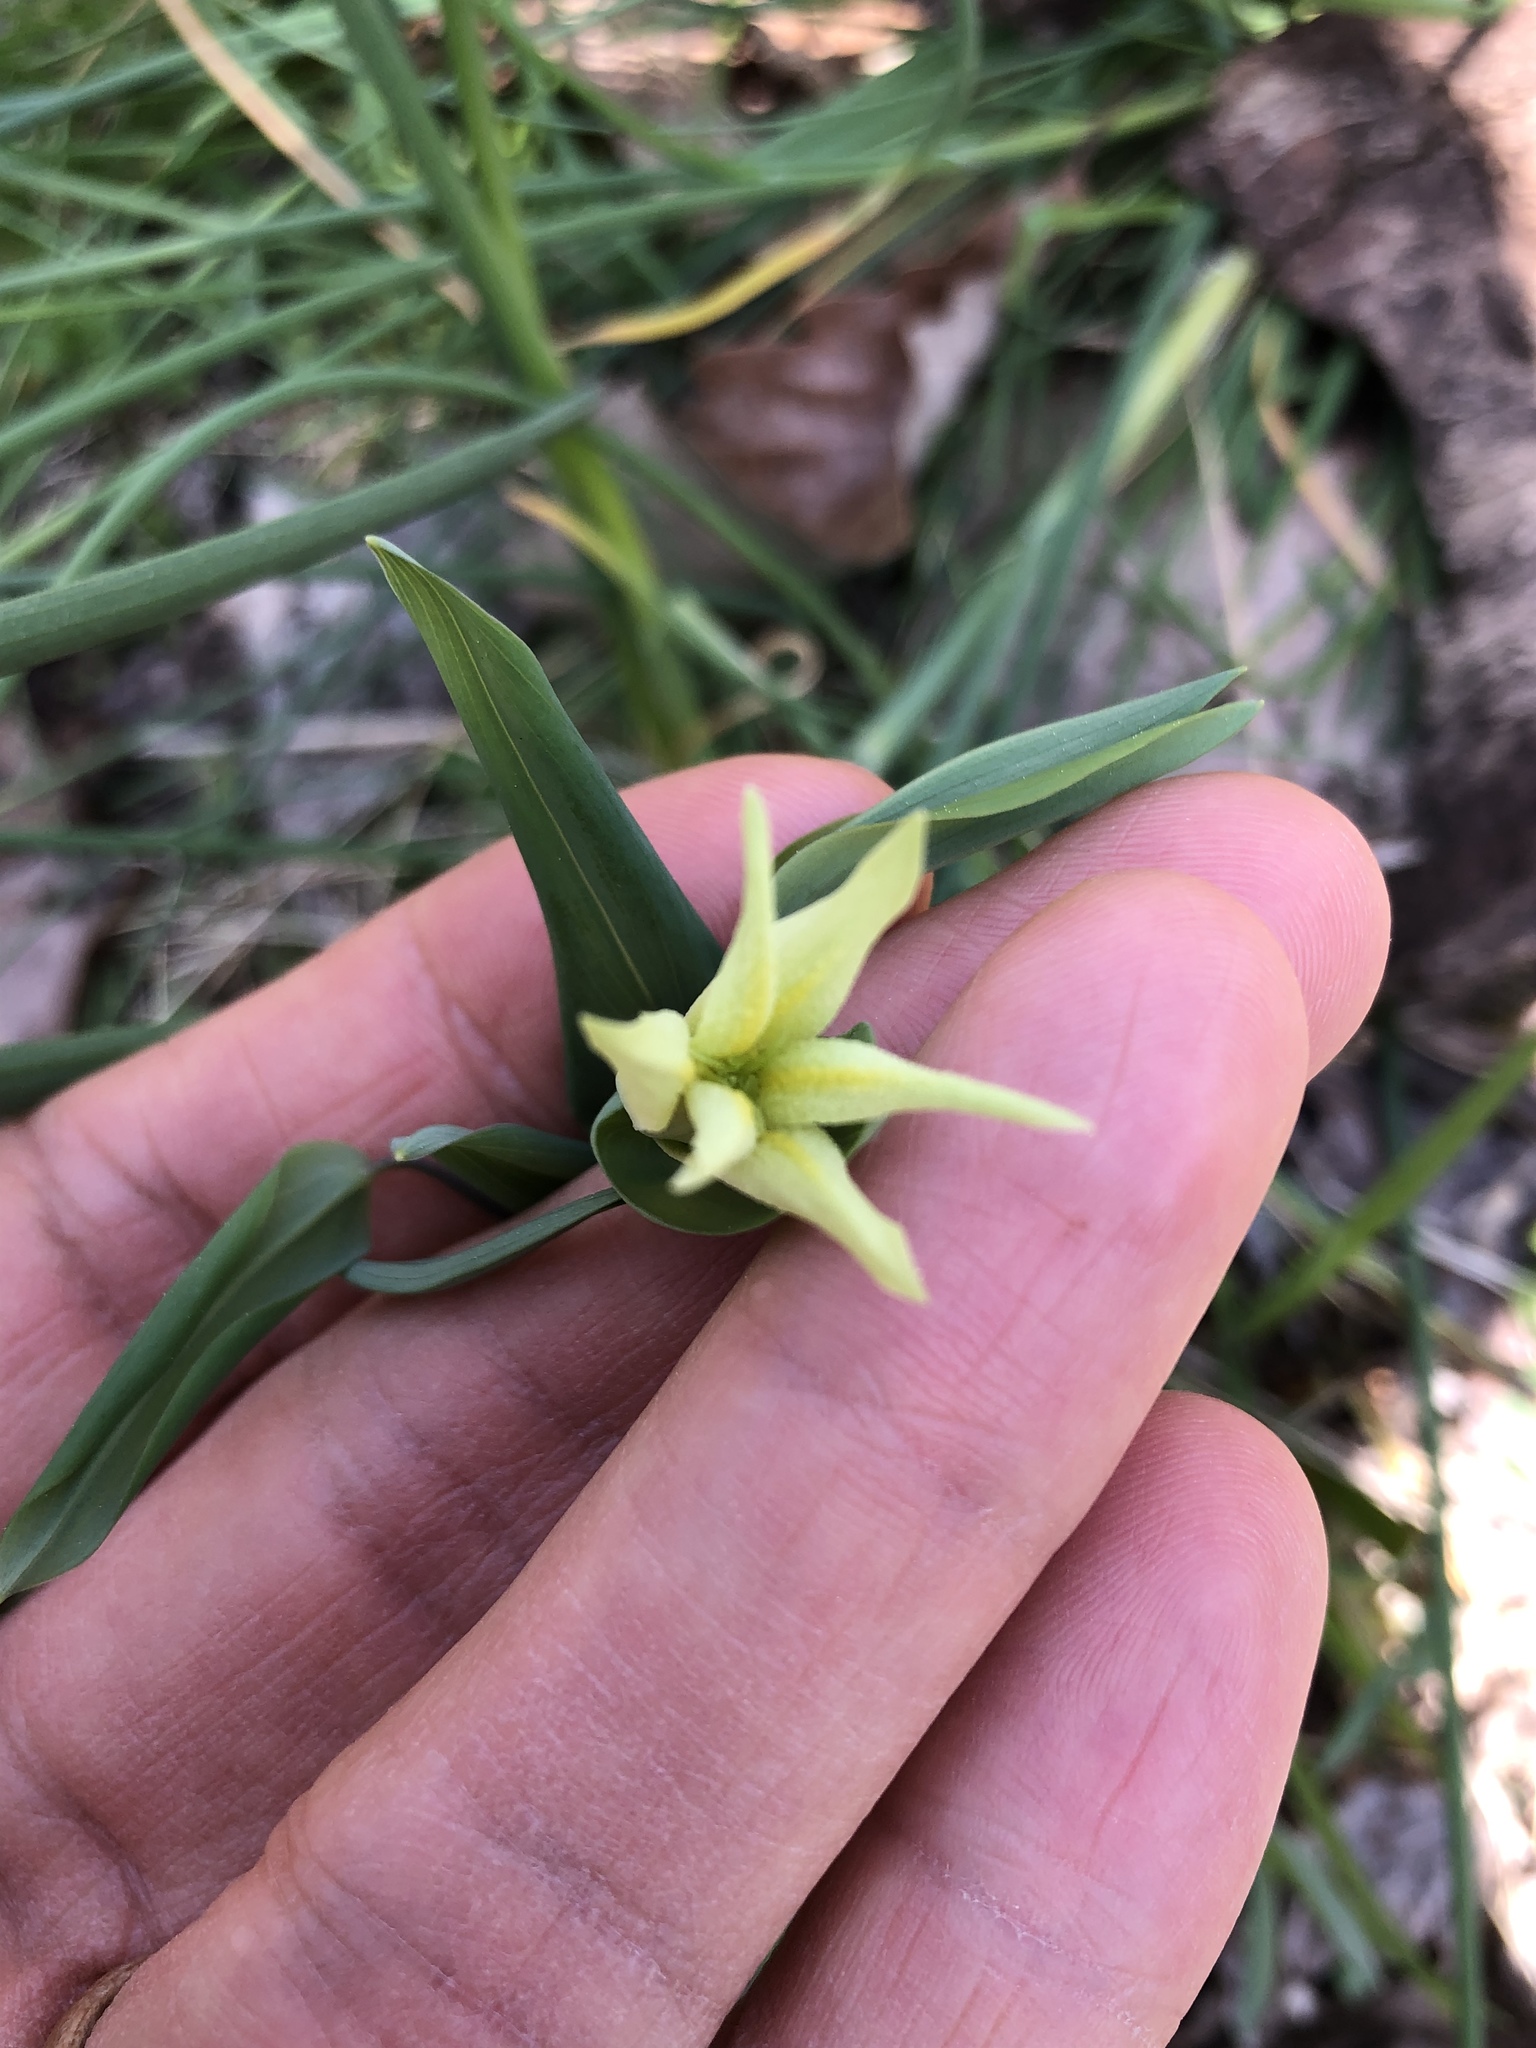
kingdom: Plantae
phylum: Tracheophyta
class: Liliopsida
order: Liliales
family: Colchicaceae
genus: Uvularia
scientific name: Uvularia perfoliata
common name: Perfoliate bellwort
